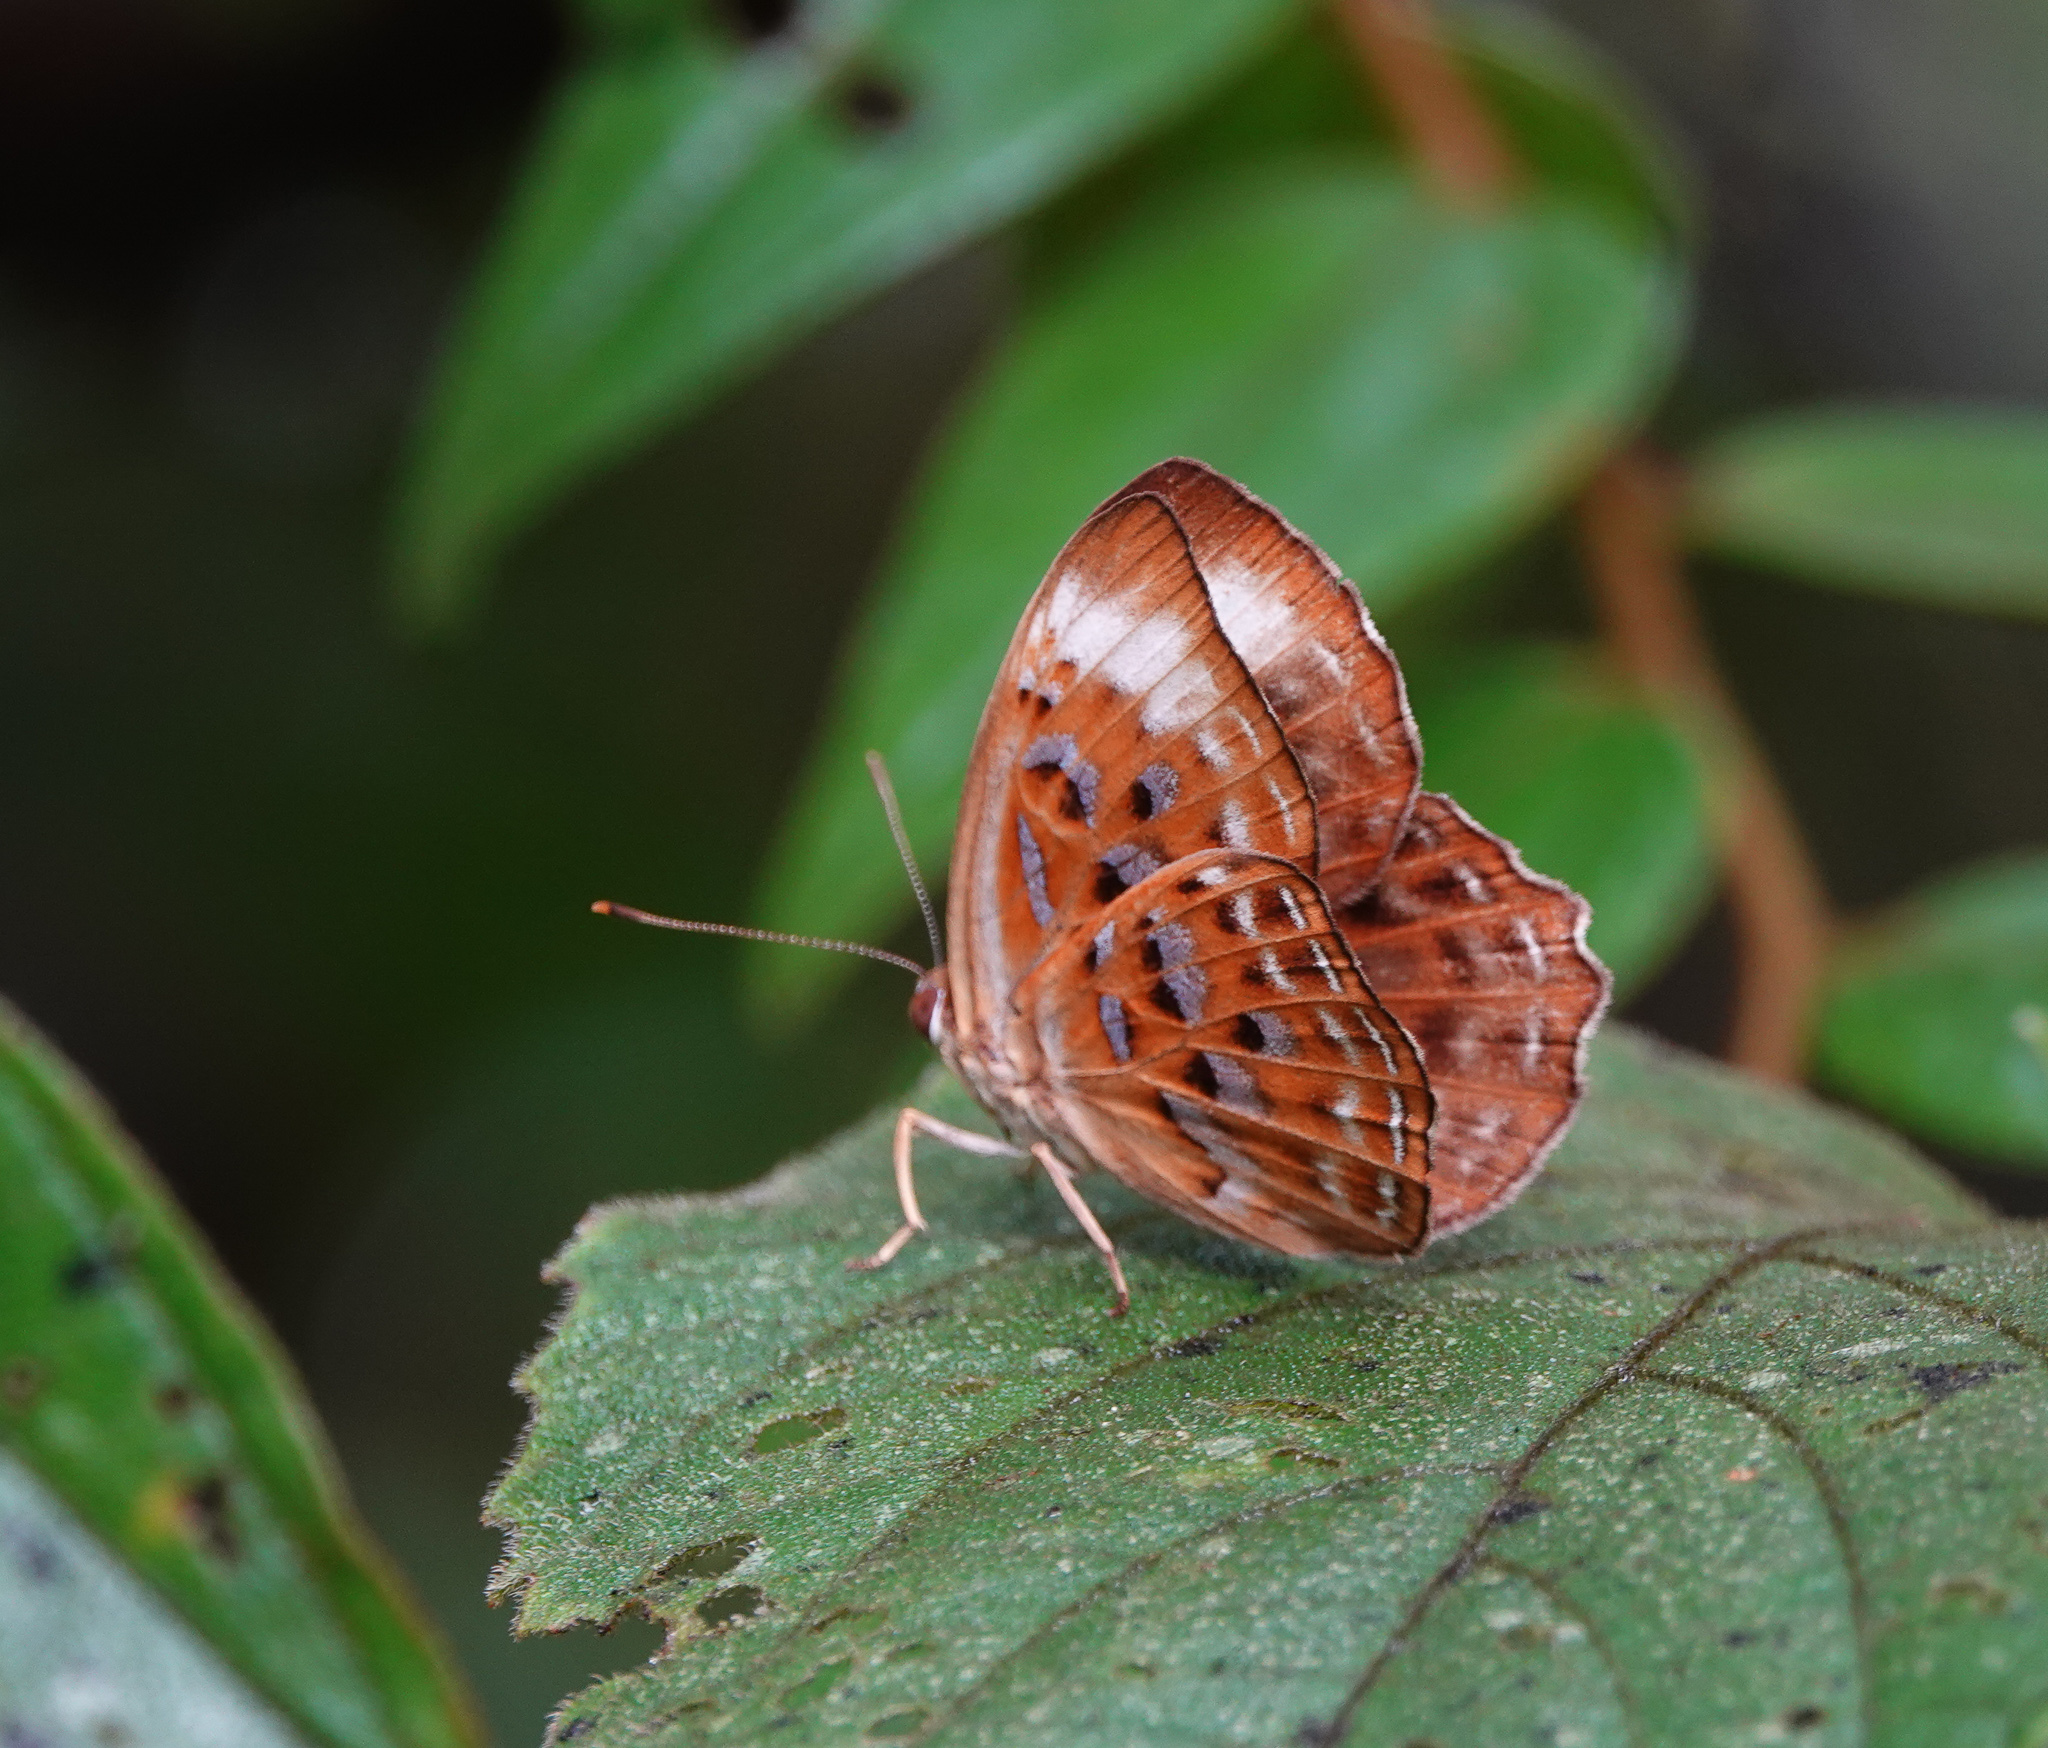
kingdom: Animalia
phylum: Arthropoda
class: Insecta
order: Lepidoptera
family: Erebidae
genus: Dysschema
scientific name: Dysschema
